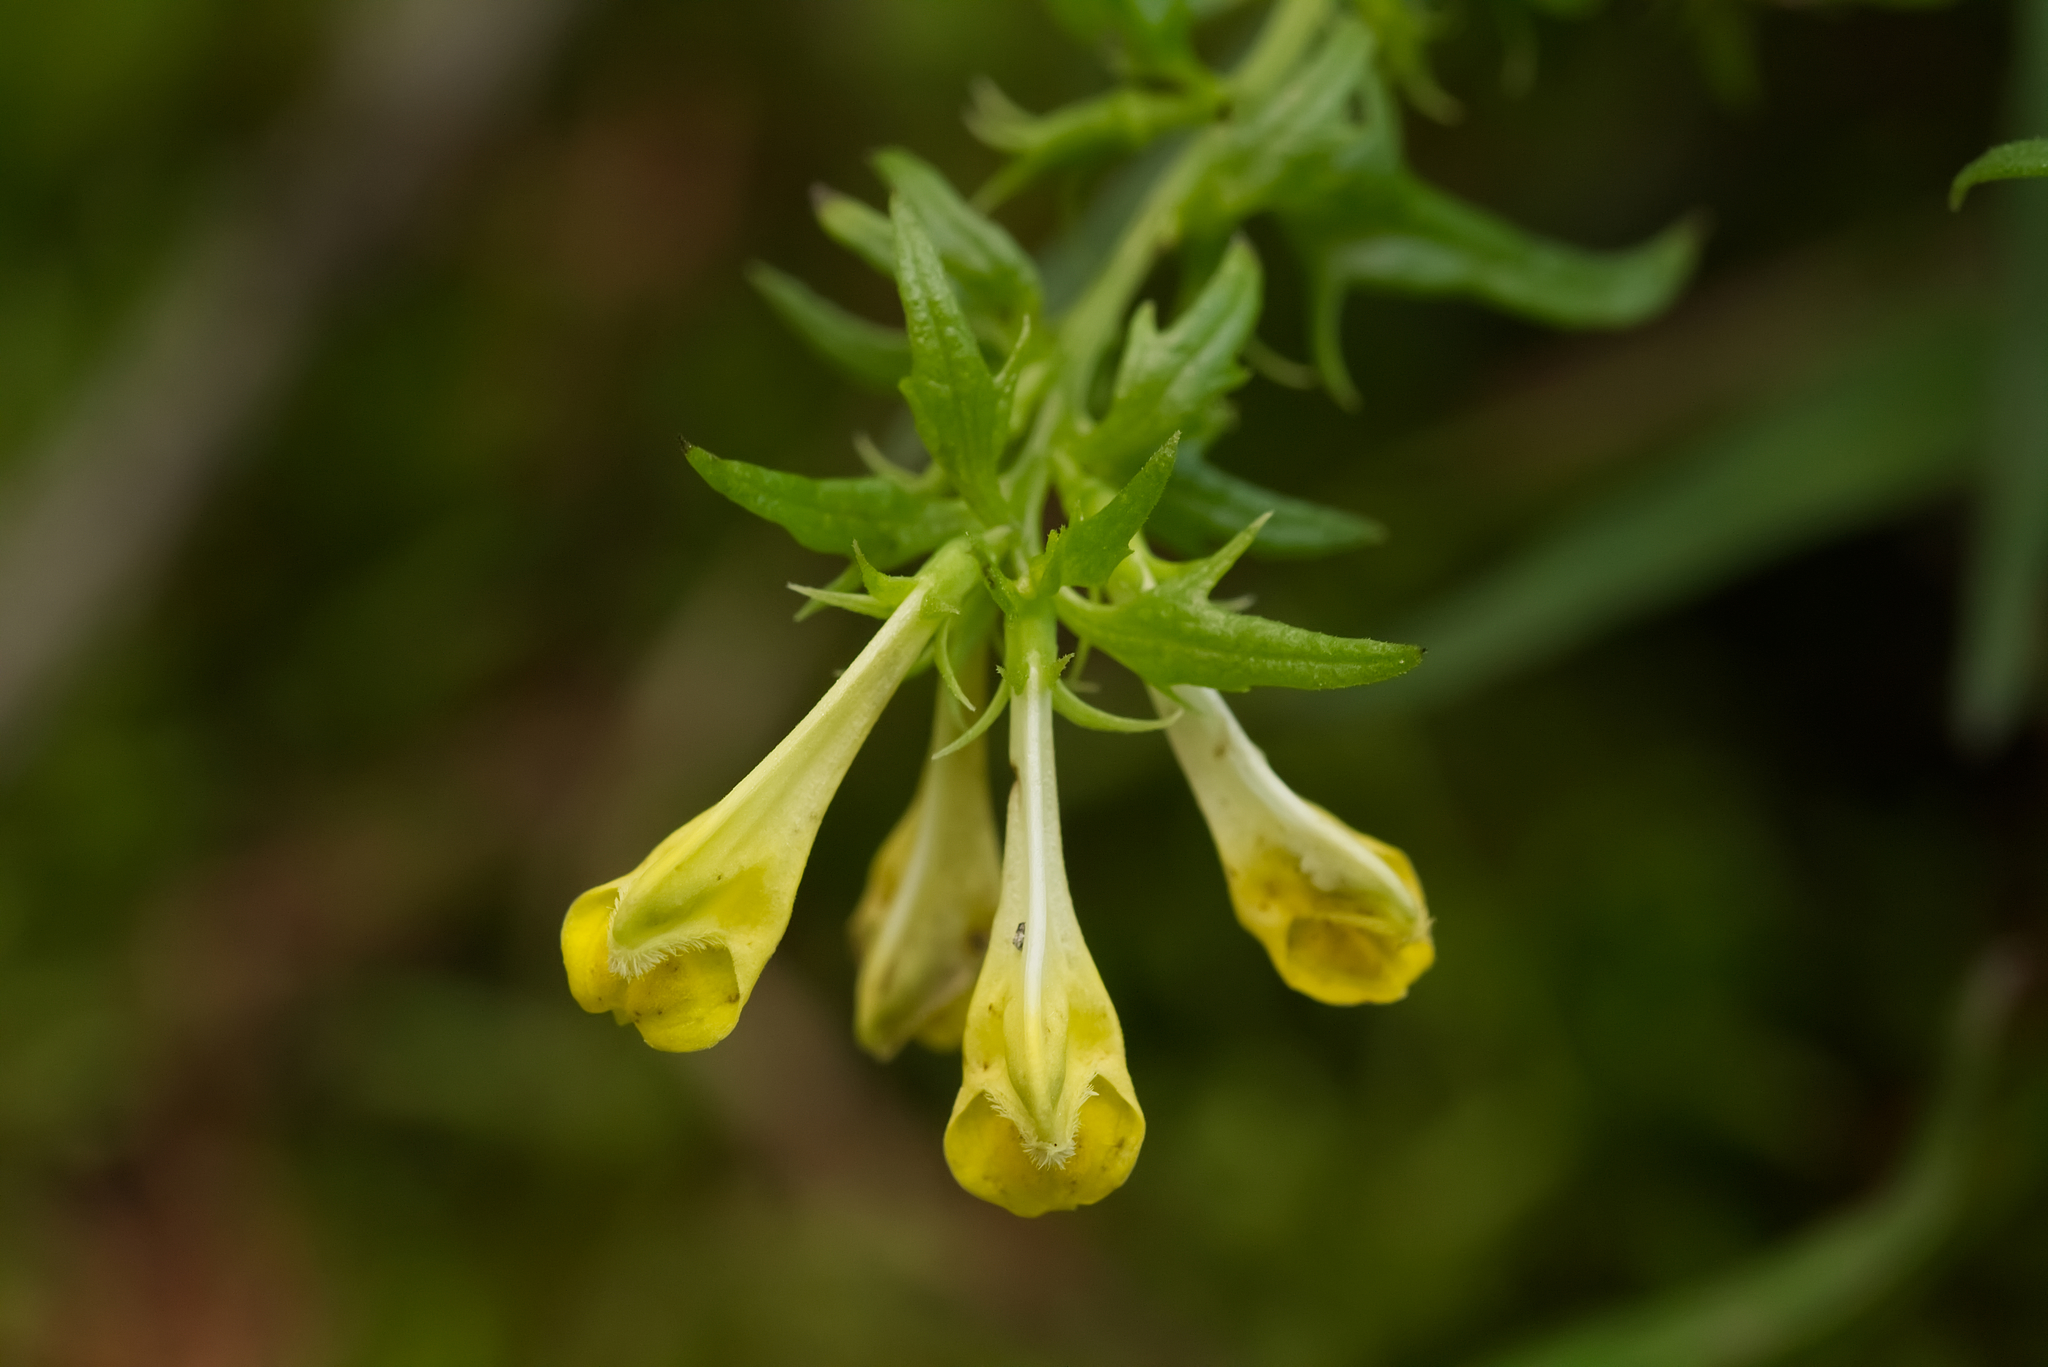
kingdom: Plantae
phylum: Tracheophyta
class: Magnoliopsida
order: Lamiales
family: Orobanchaceae
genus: Melampyrum
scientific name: Melampyrum pratense
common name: Common cow-wheat
